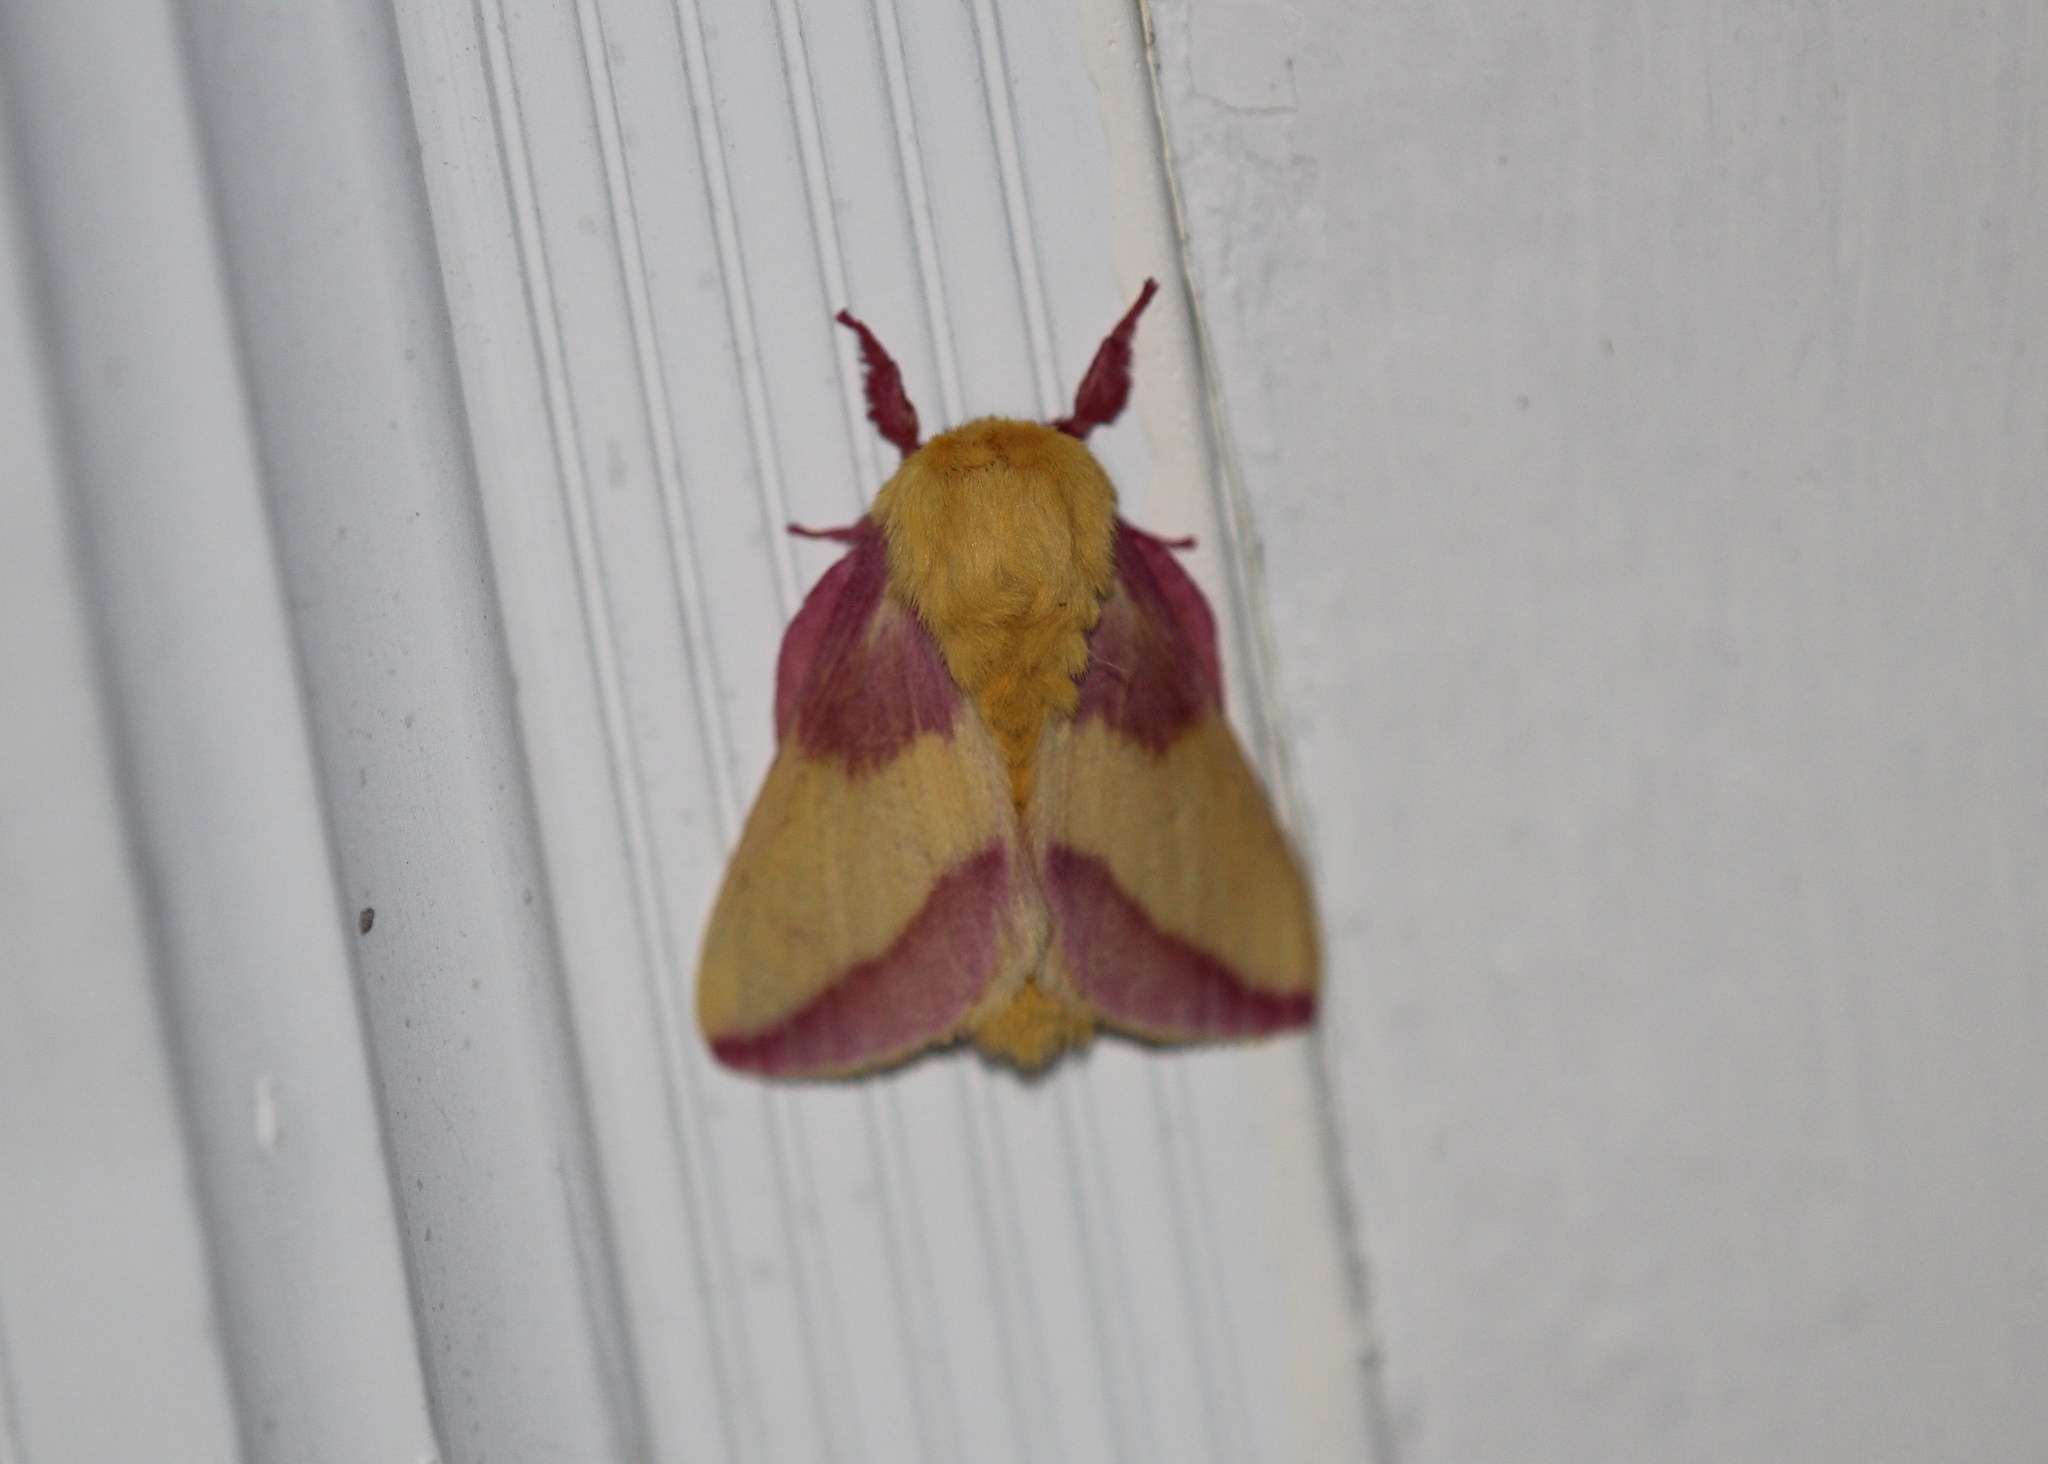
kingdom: Animalia
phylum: Arthropoda
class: Insecta
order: Lepidoptera
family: Saturniidae
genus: Dryocampa
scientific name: Dryocampa rubicunda
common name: Rosy maple moth
